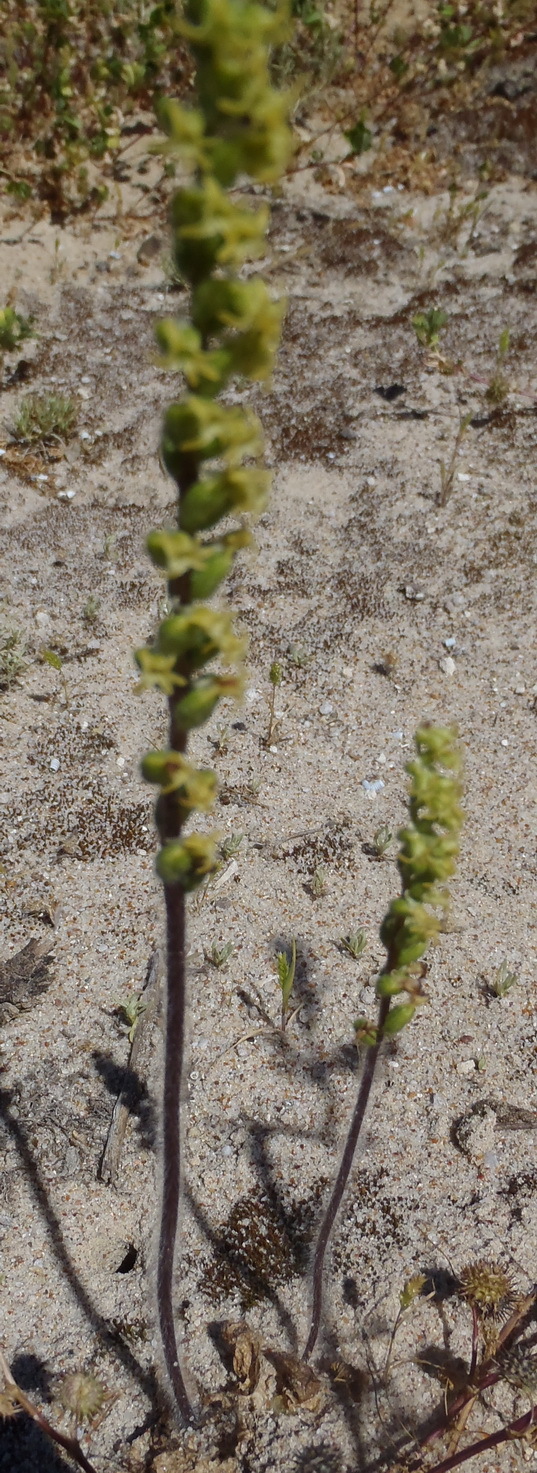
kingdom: Plantae
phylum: Tracheophyta
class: Liliopsida
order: Asparagales
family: Orchidaceae
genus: Holothrix
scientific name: Holothrix villosa
